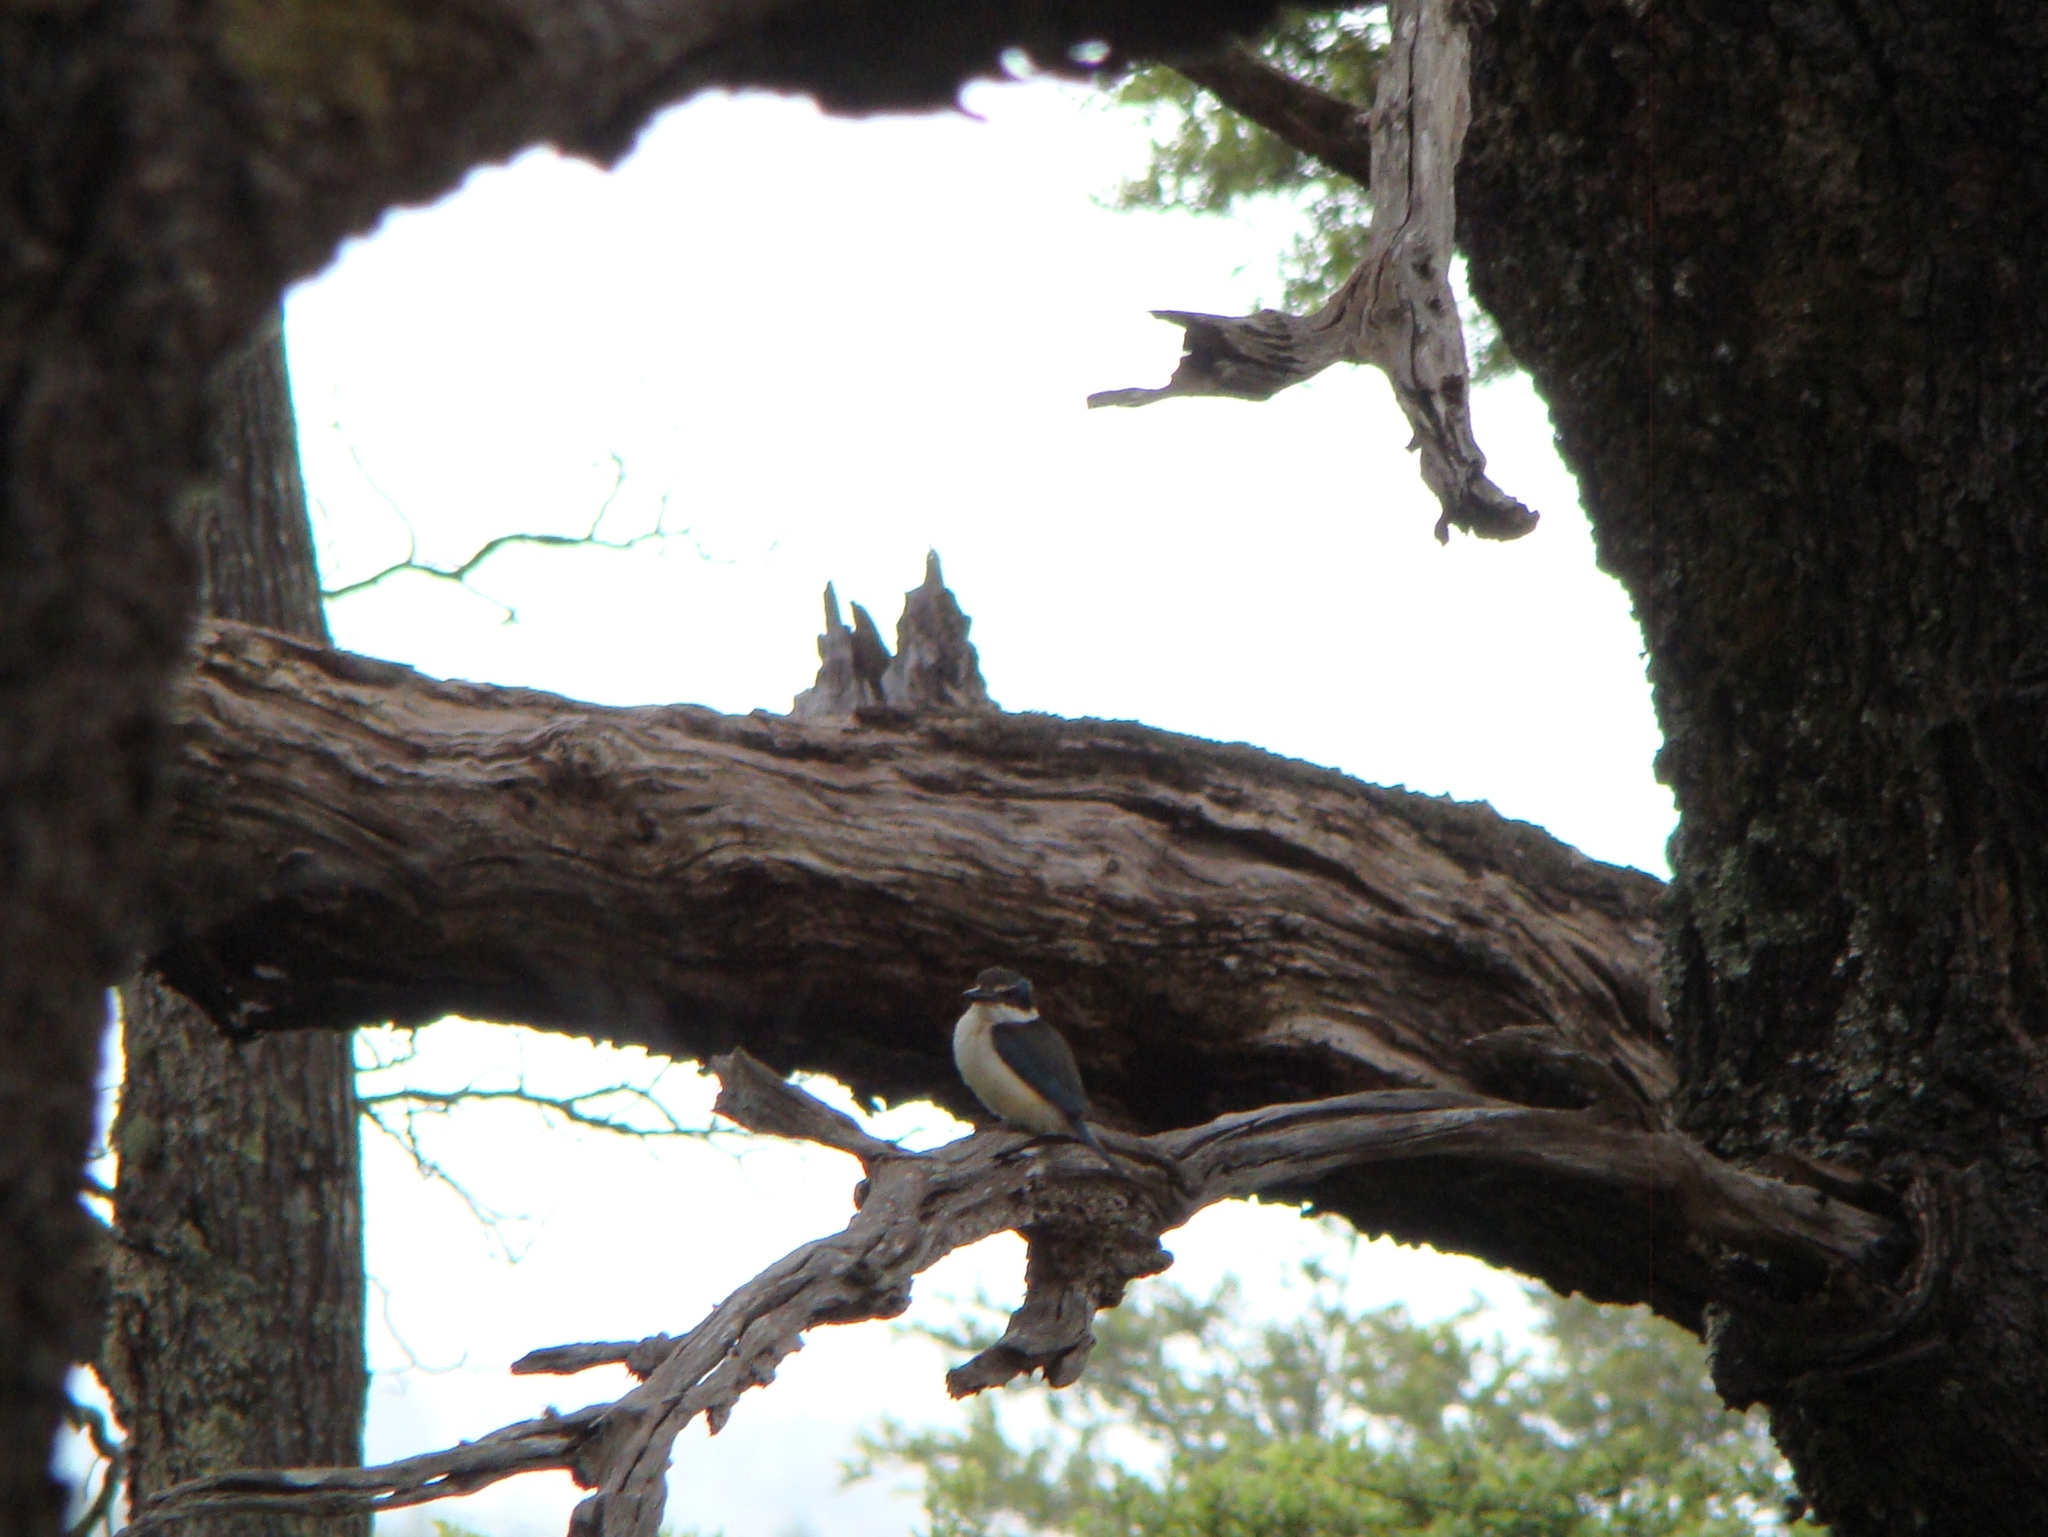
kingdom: Animalia
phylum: Chordata
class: Aves
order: Coraciiformes
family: Alcedinidae
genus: Todiramphus
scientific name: Todiramphus sanctus
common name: Sacred kingfisher
